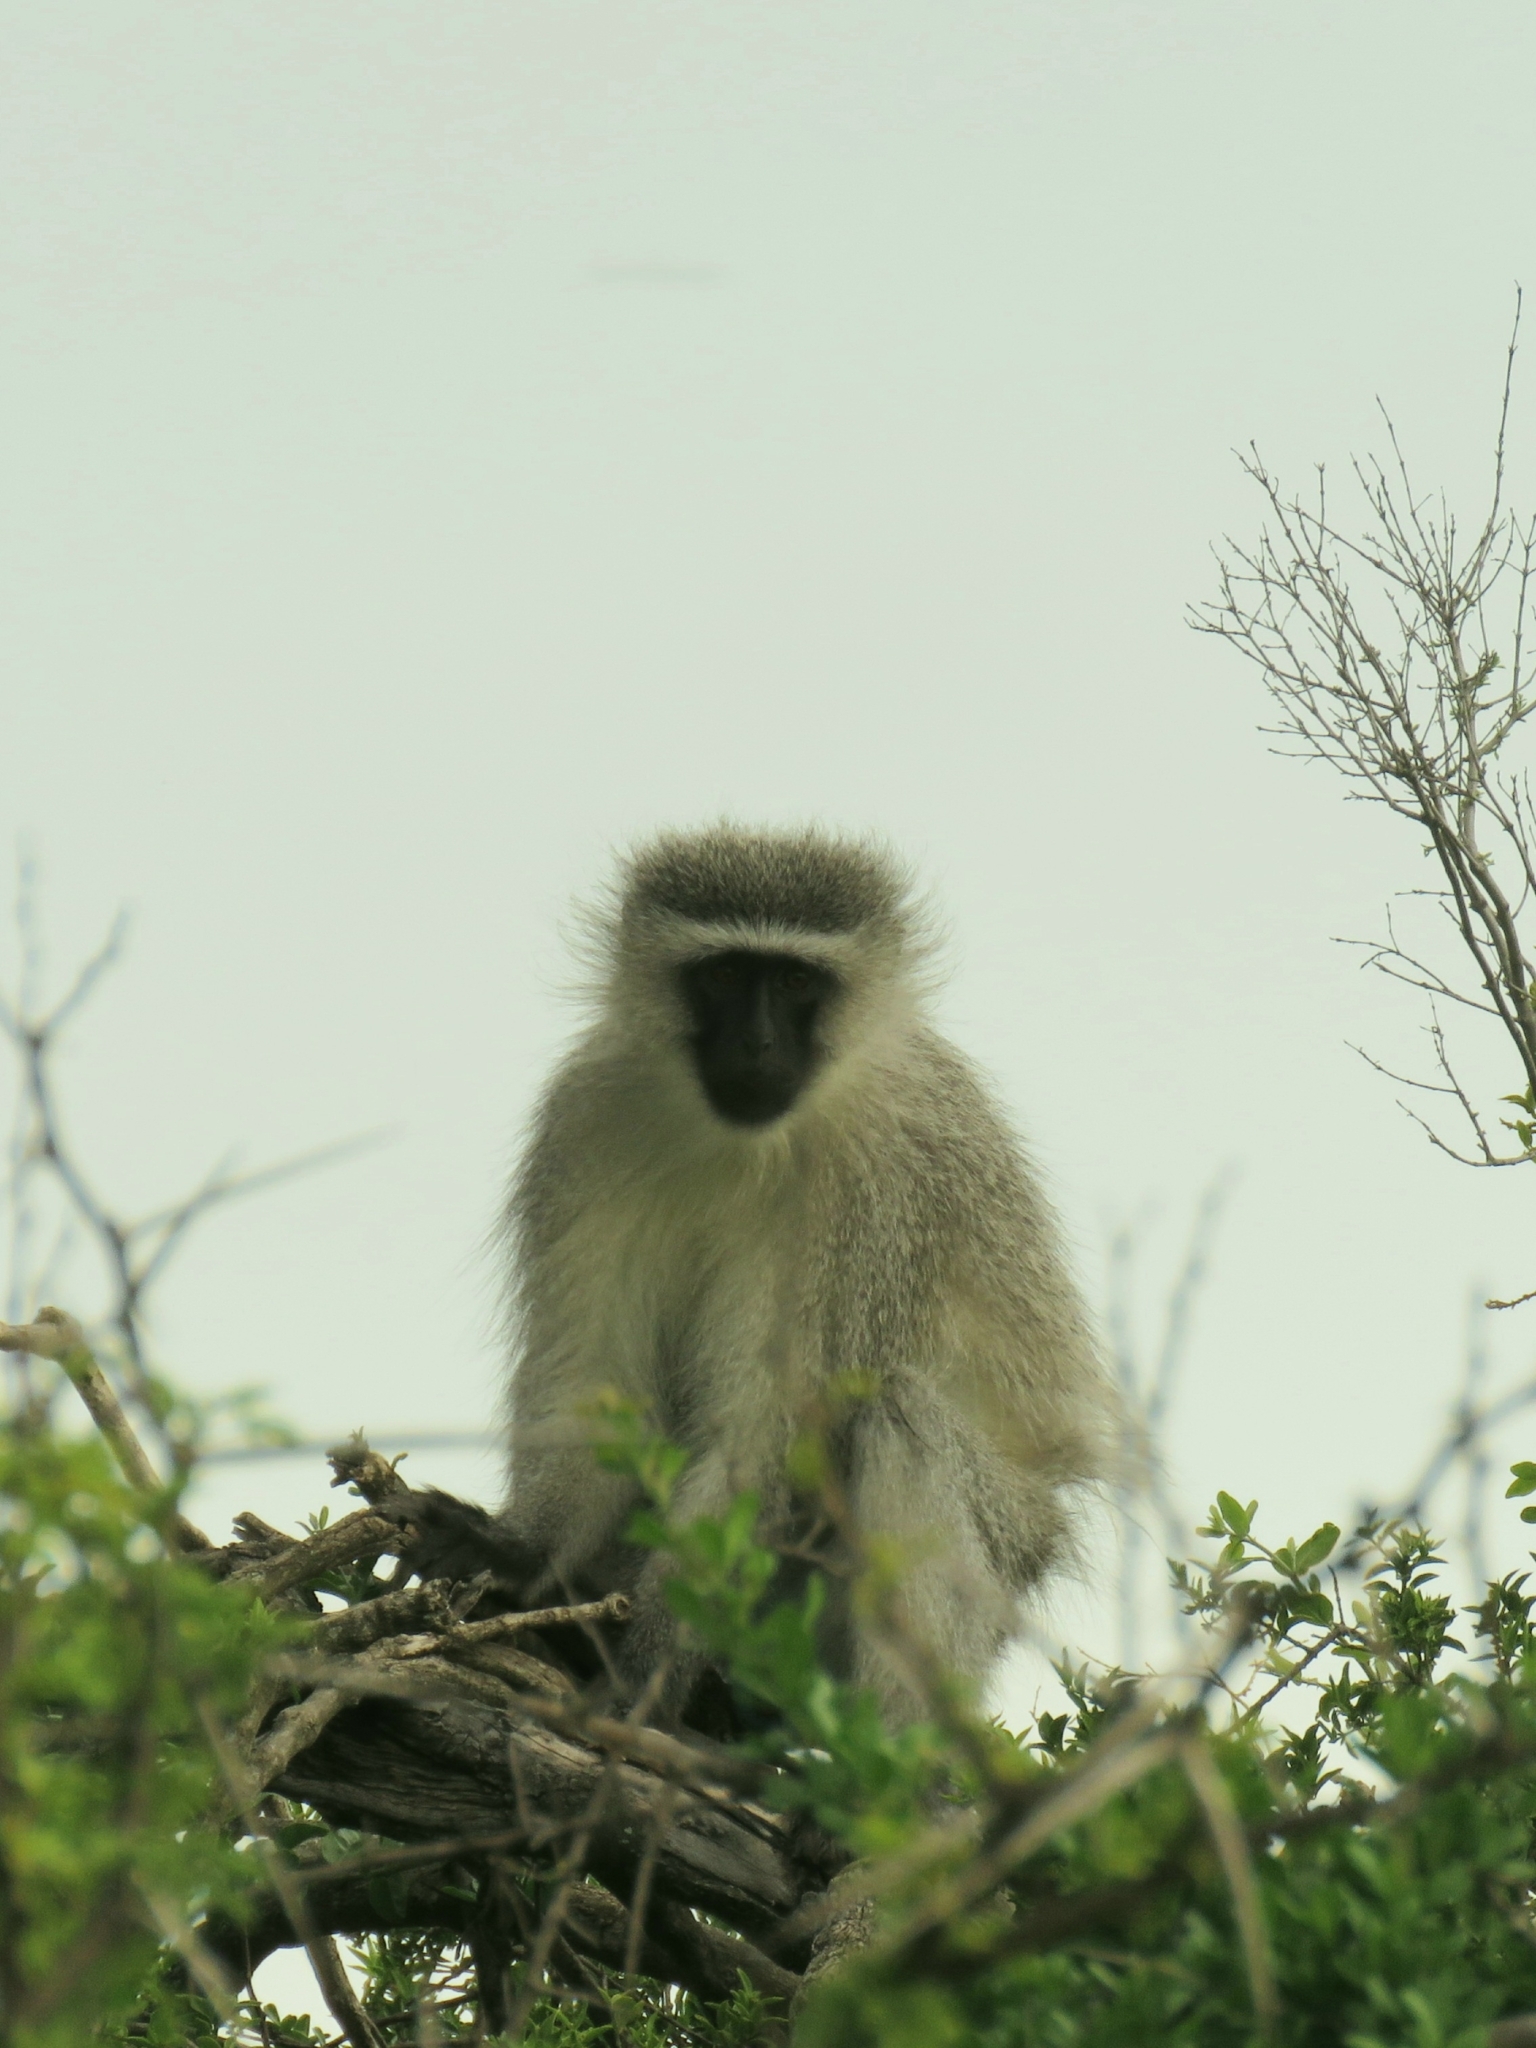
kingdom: Animalia
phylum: Chordata
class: Mammalia
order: Primates
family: Cercopithecidae
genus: Chlorocebus
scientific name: Chlorocebus pygerythrus
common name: Vervet monkey
